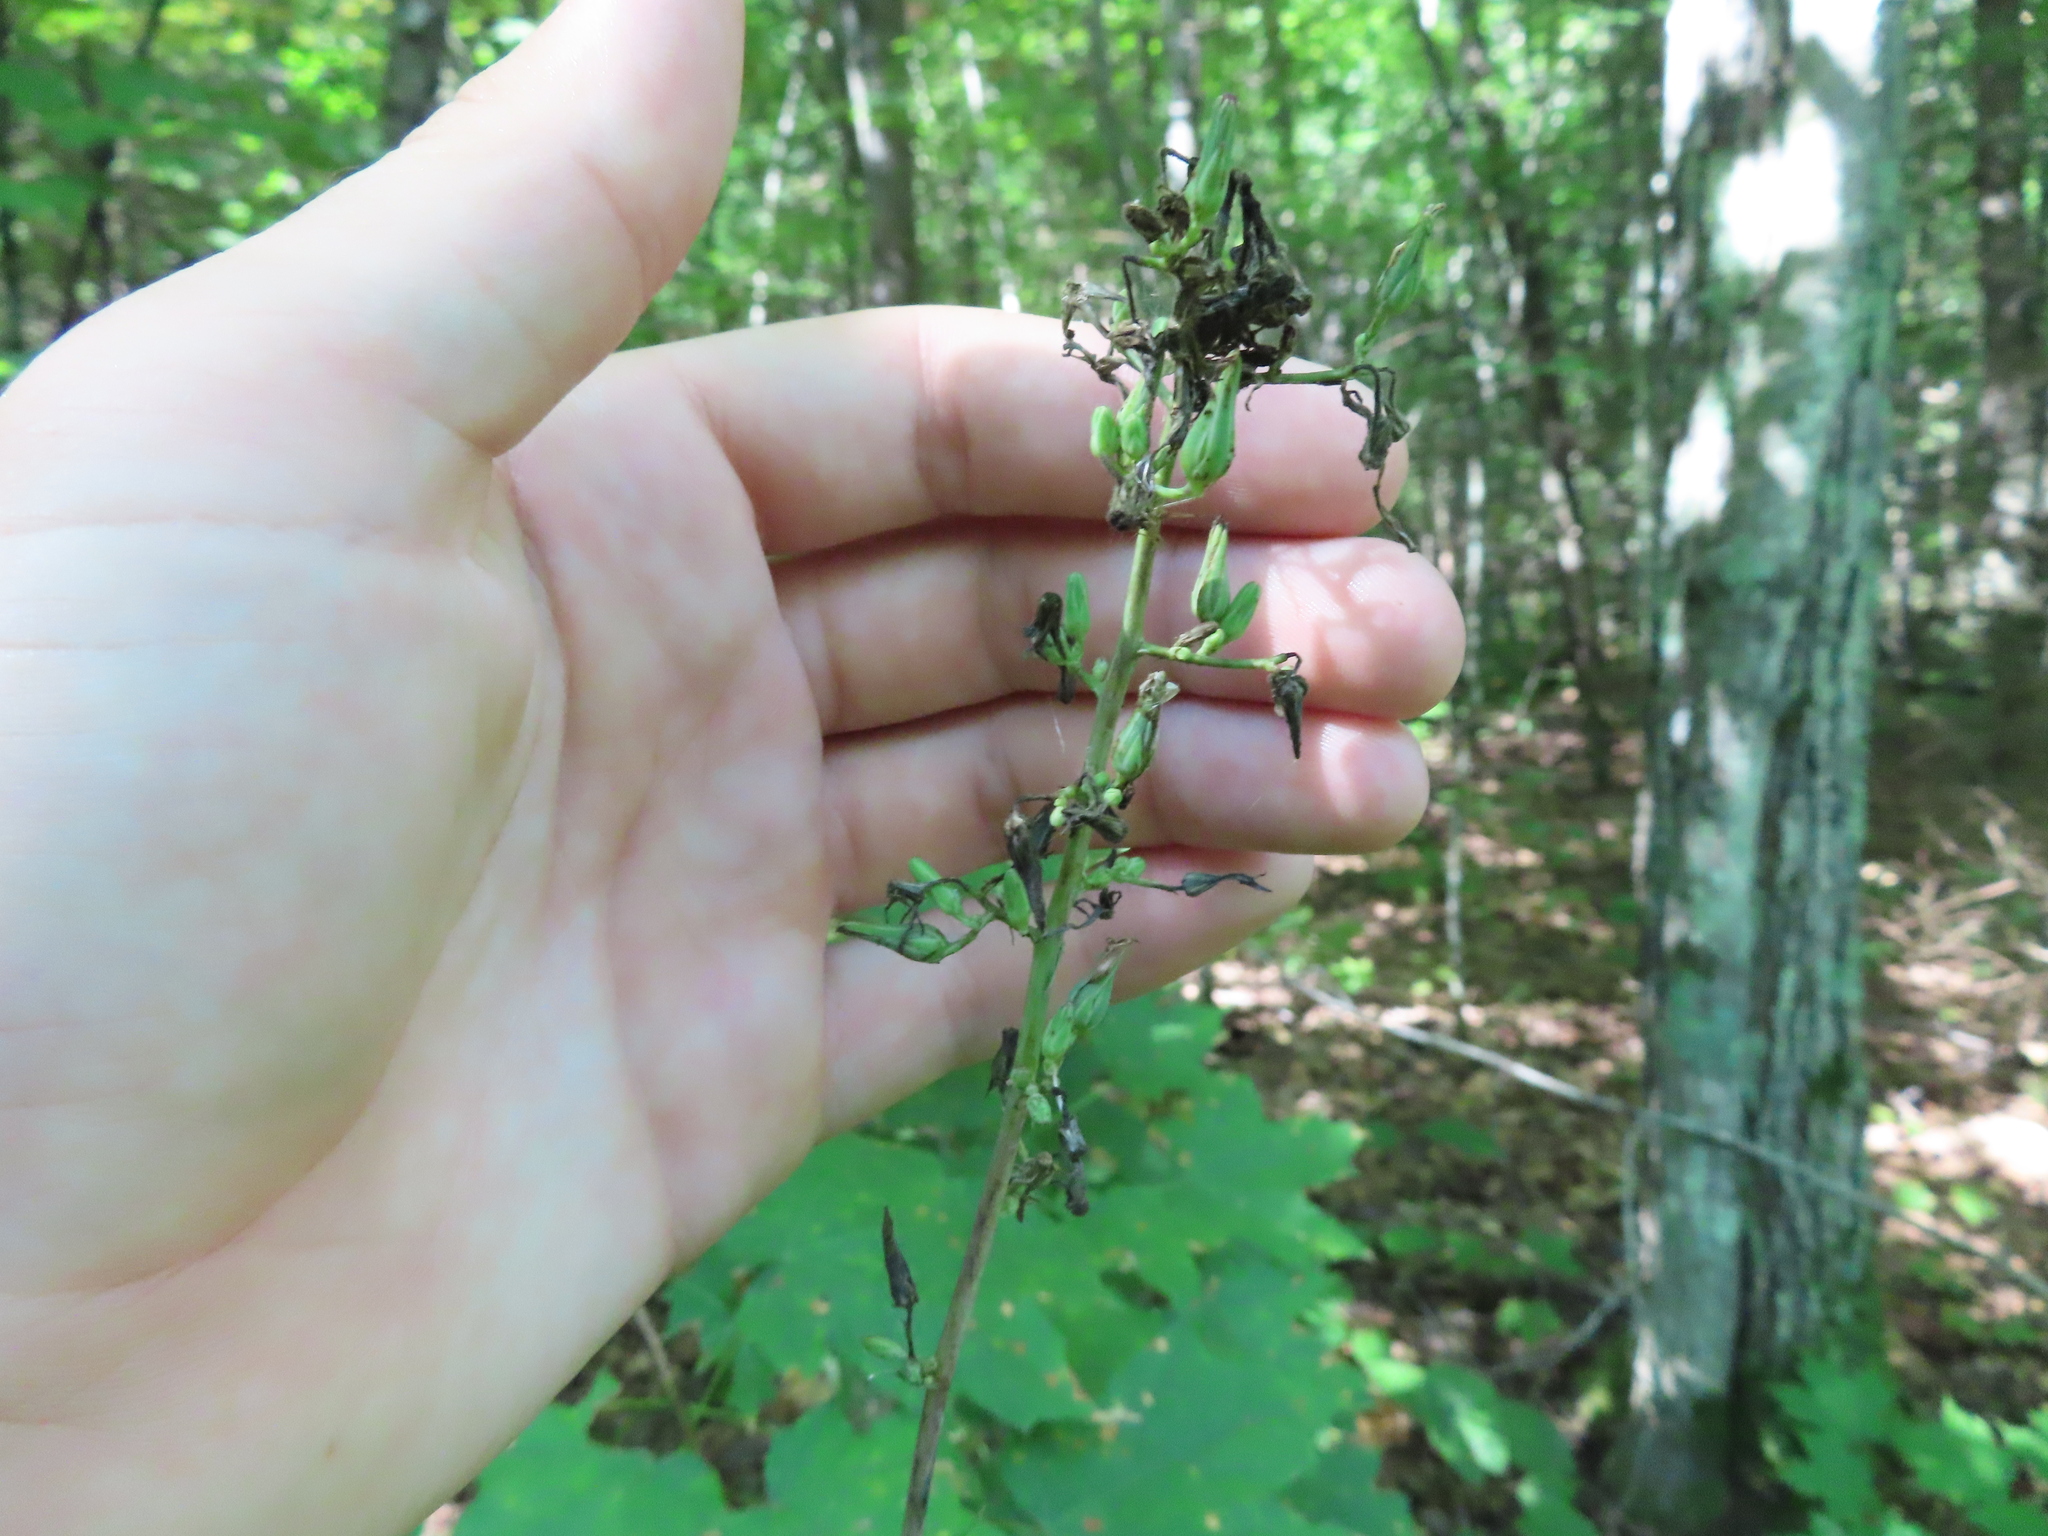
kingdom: Plantae
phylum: Tracheophyta
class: Magnoliopsida
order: Asterales
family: Asteraceae
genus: Lactuca
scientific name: Lactuca canadensis
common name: Canada lettuce
